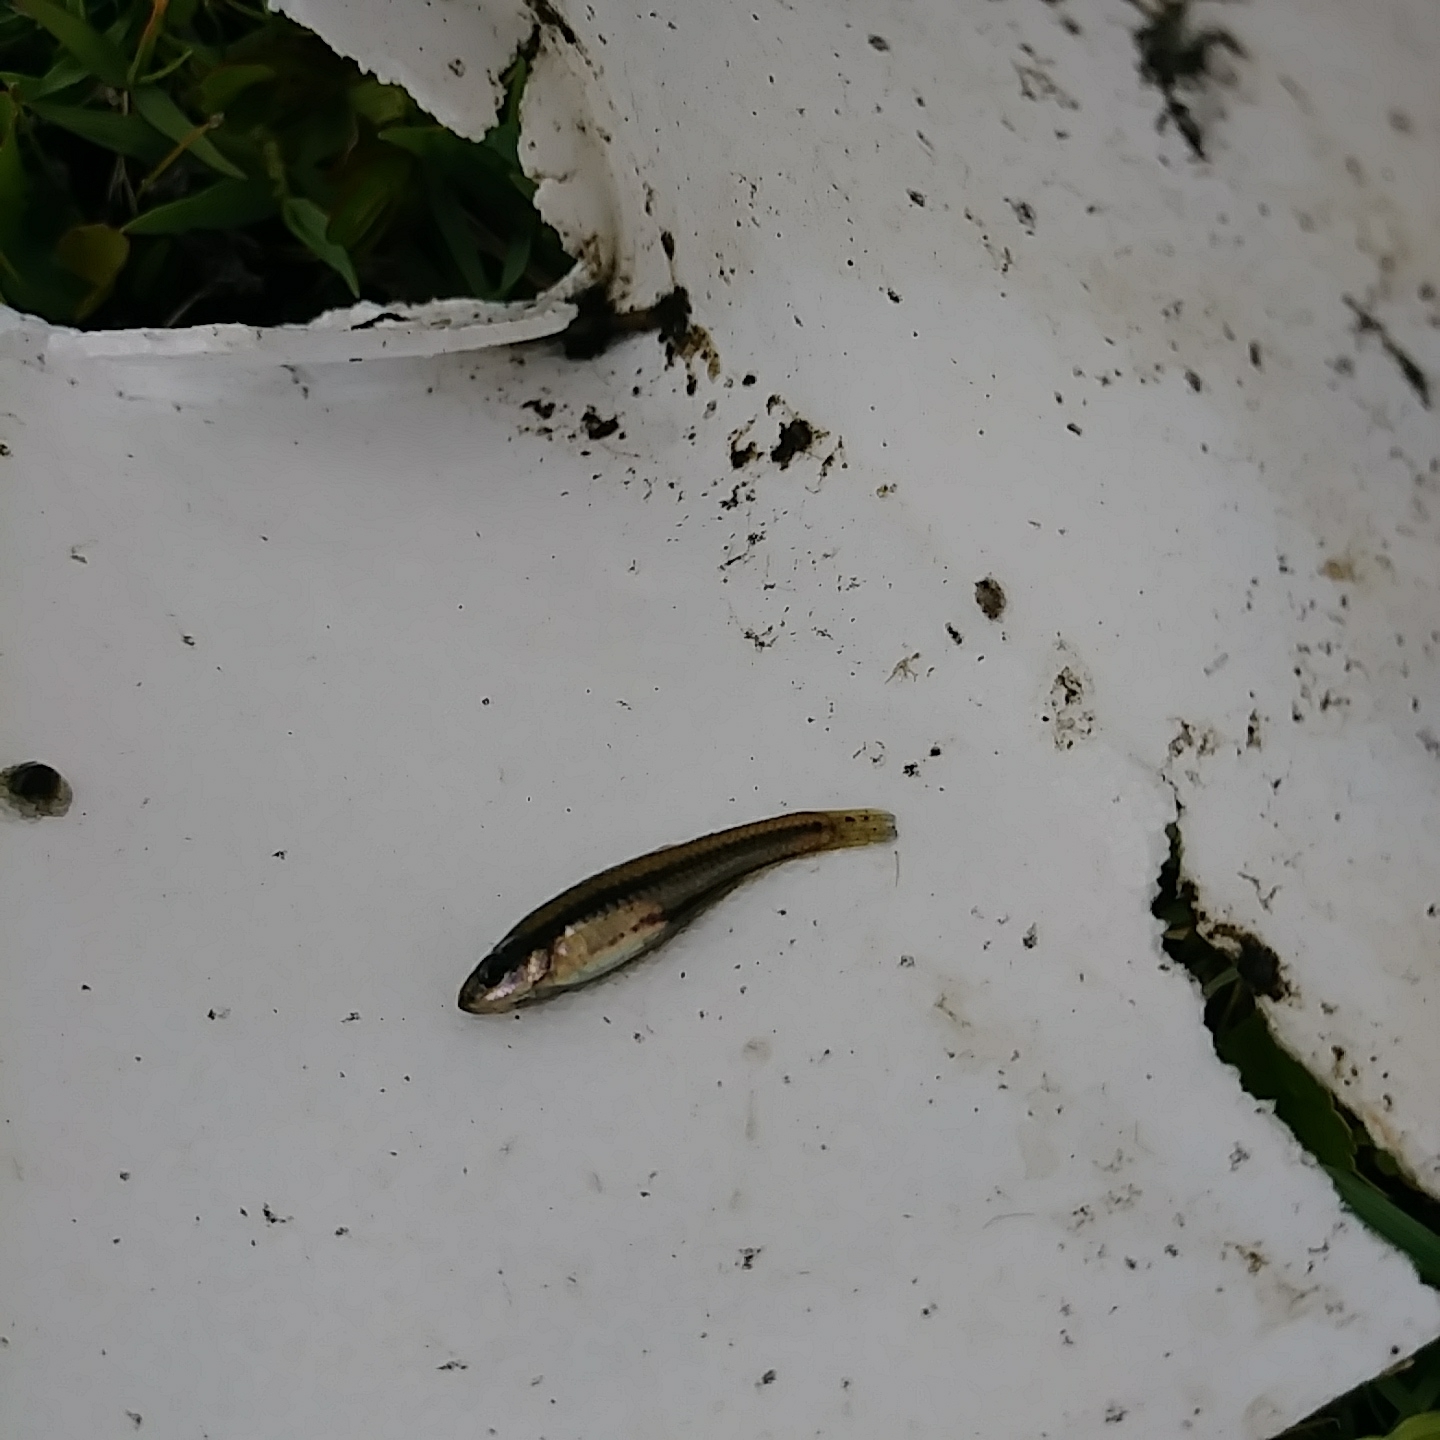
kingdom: Animalia
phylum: Chordata
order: Cyprinodontiformes
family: Fundulidae
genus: Lucania
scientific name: Lucania goodei
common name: Bluefin killifish
